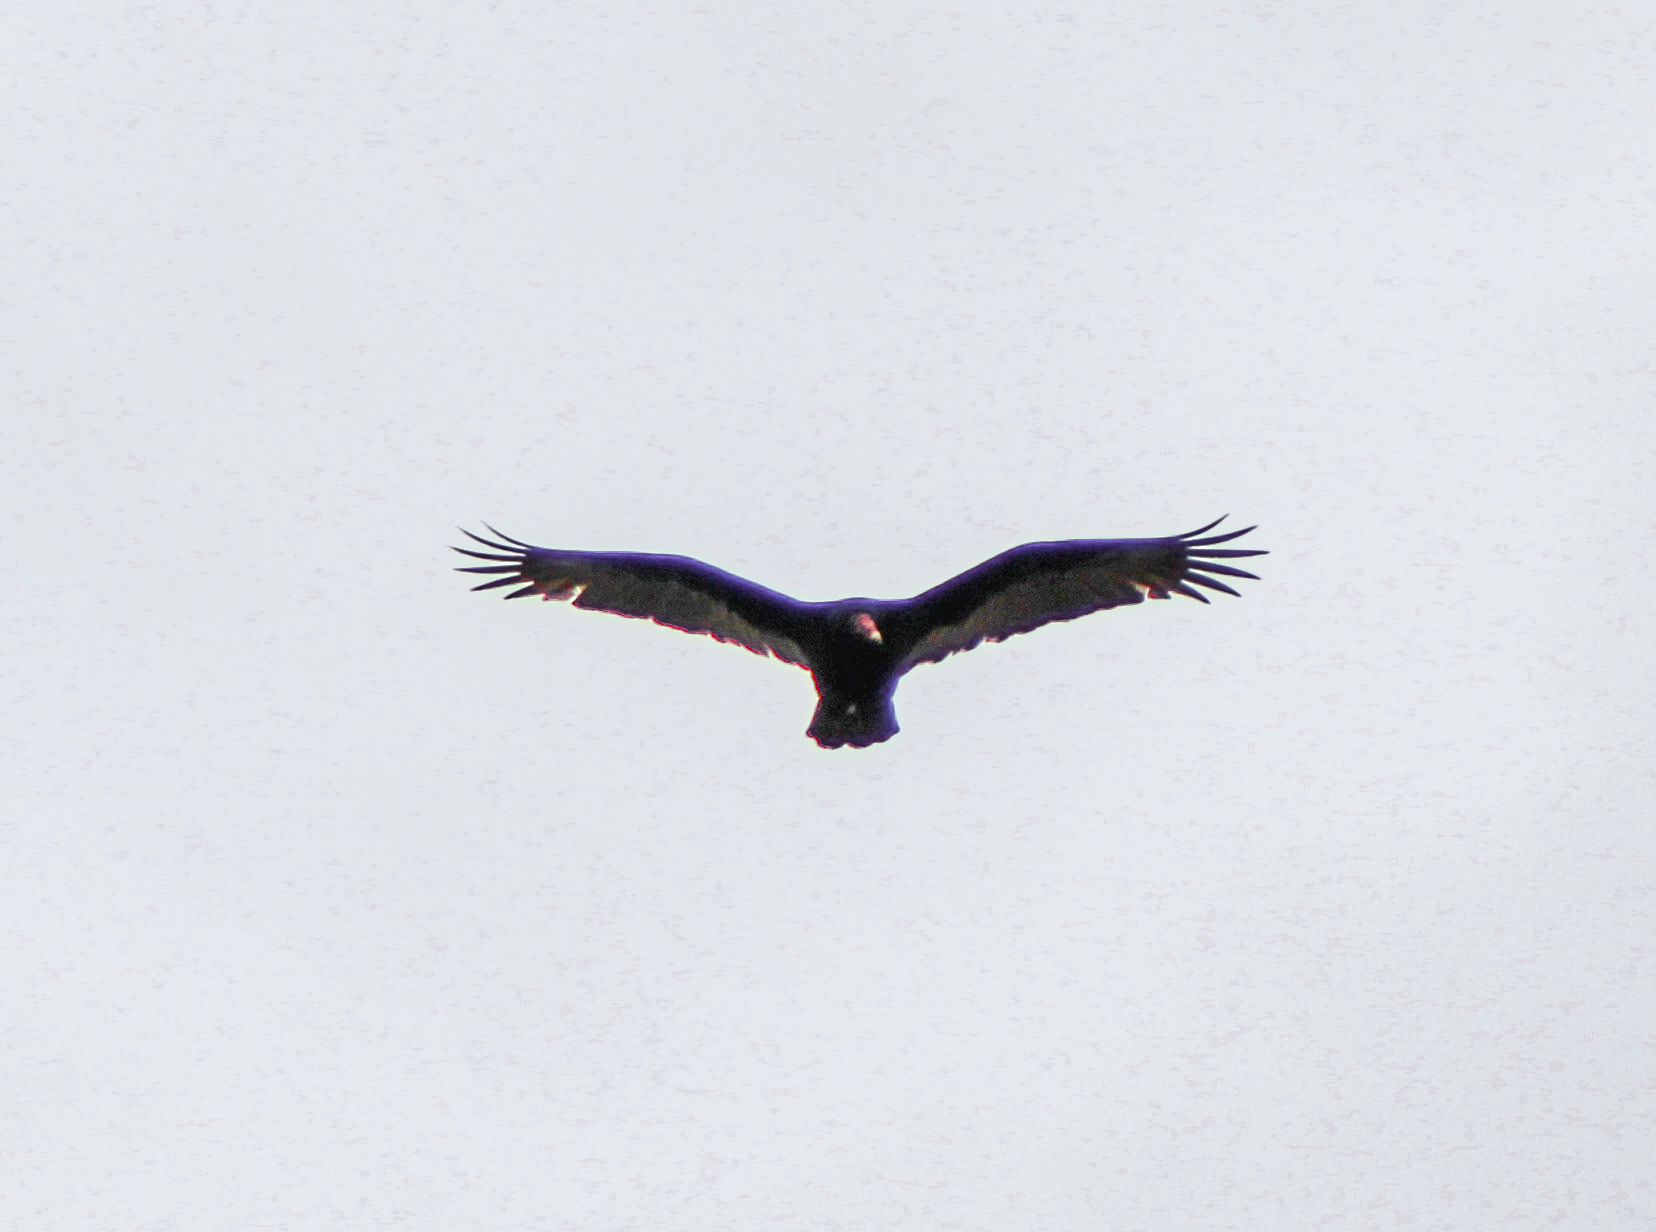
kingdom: Animalia
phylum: Chordata
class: Aves
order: Accipitriformes
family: Cathartidae
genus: Cathartes
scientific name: Cathartes aura
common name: Turkey vulture
